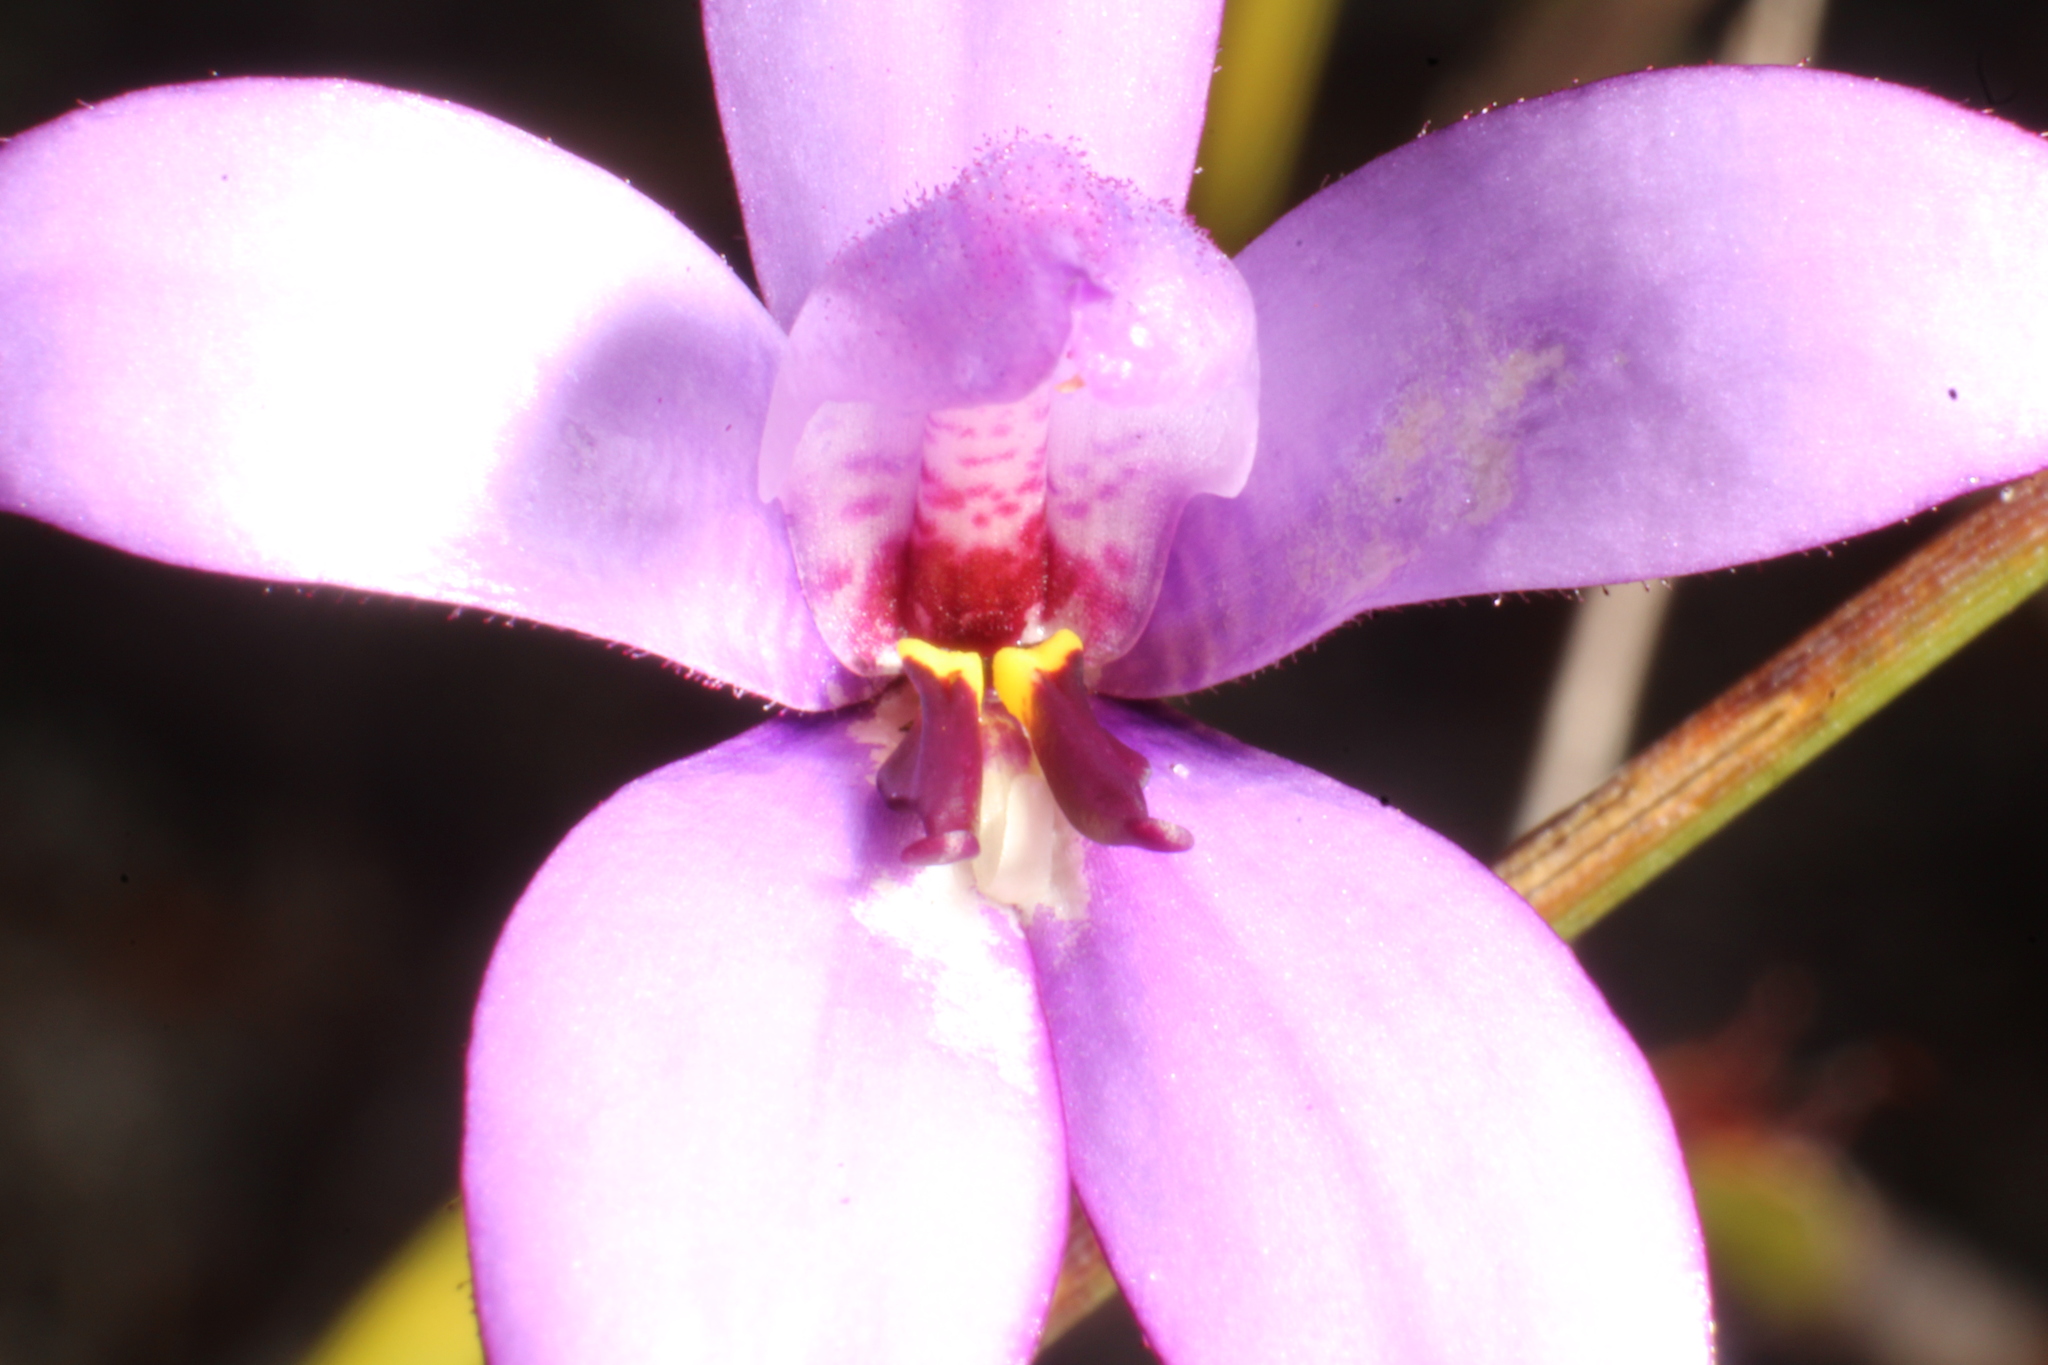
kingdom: Plantae
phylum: Tracheophyta
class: Liliopsida
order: Asparagales
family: Orchidaceae
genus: Caladenia
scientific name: Caladenia brunonis
